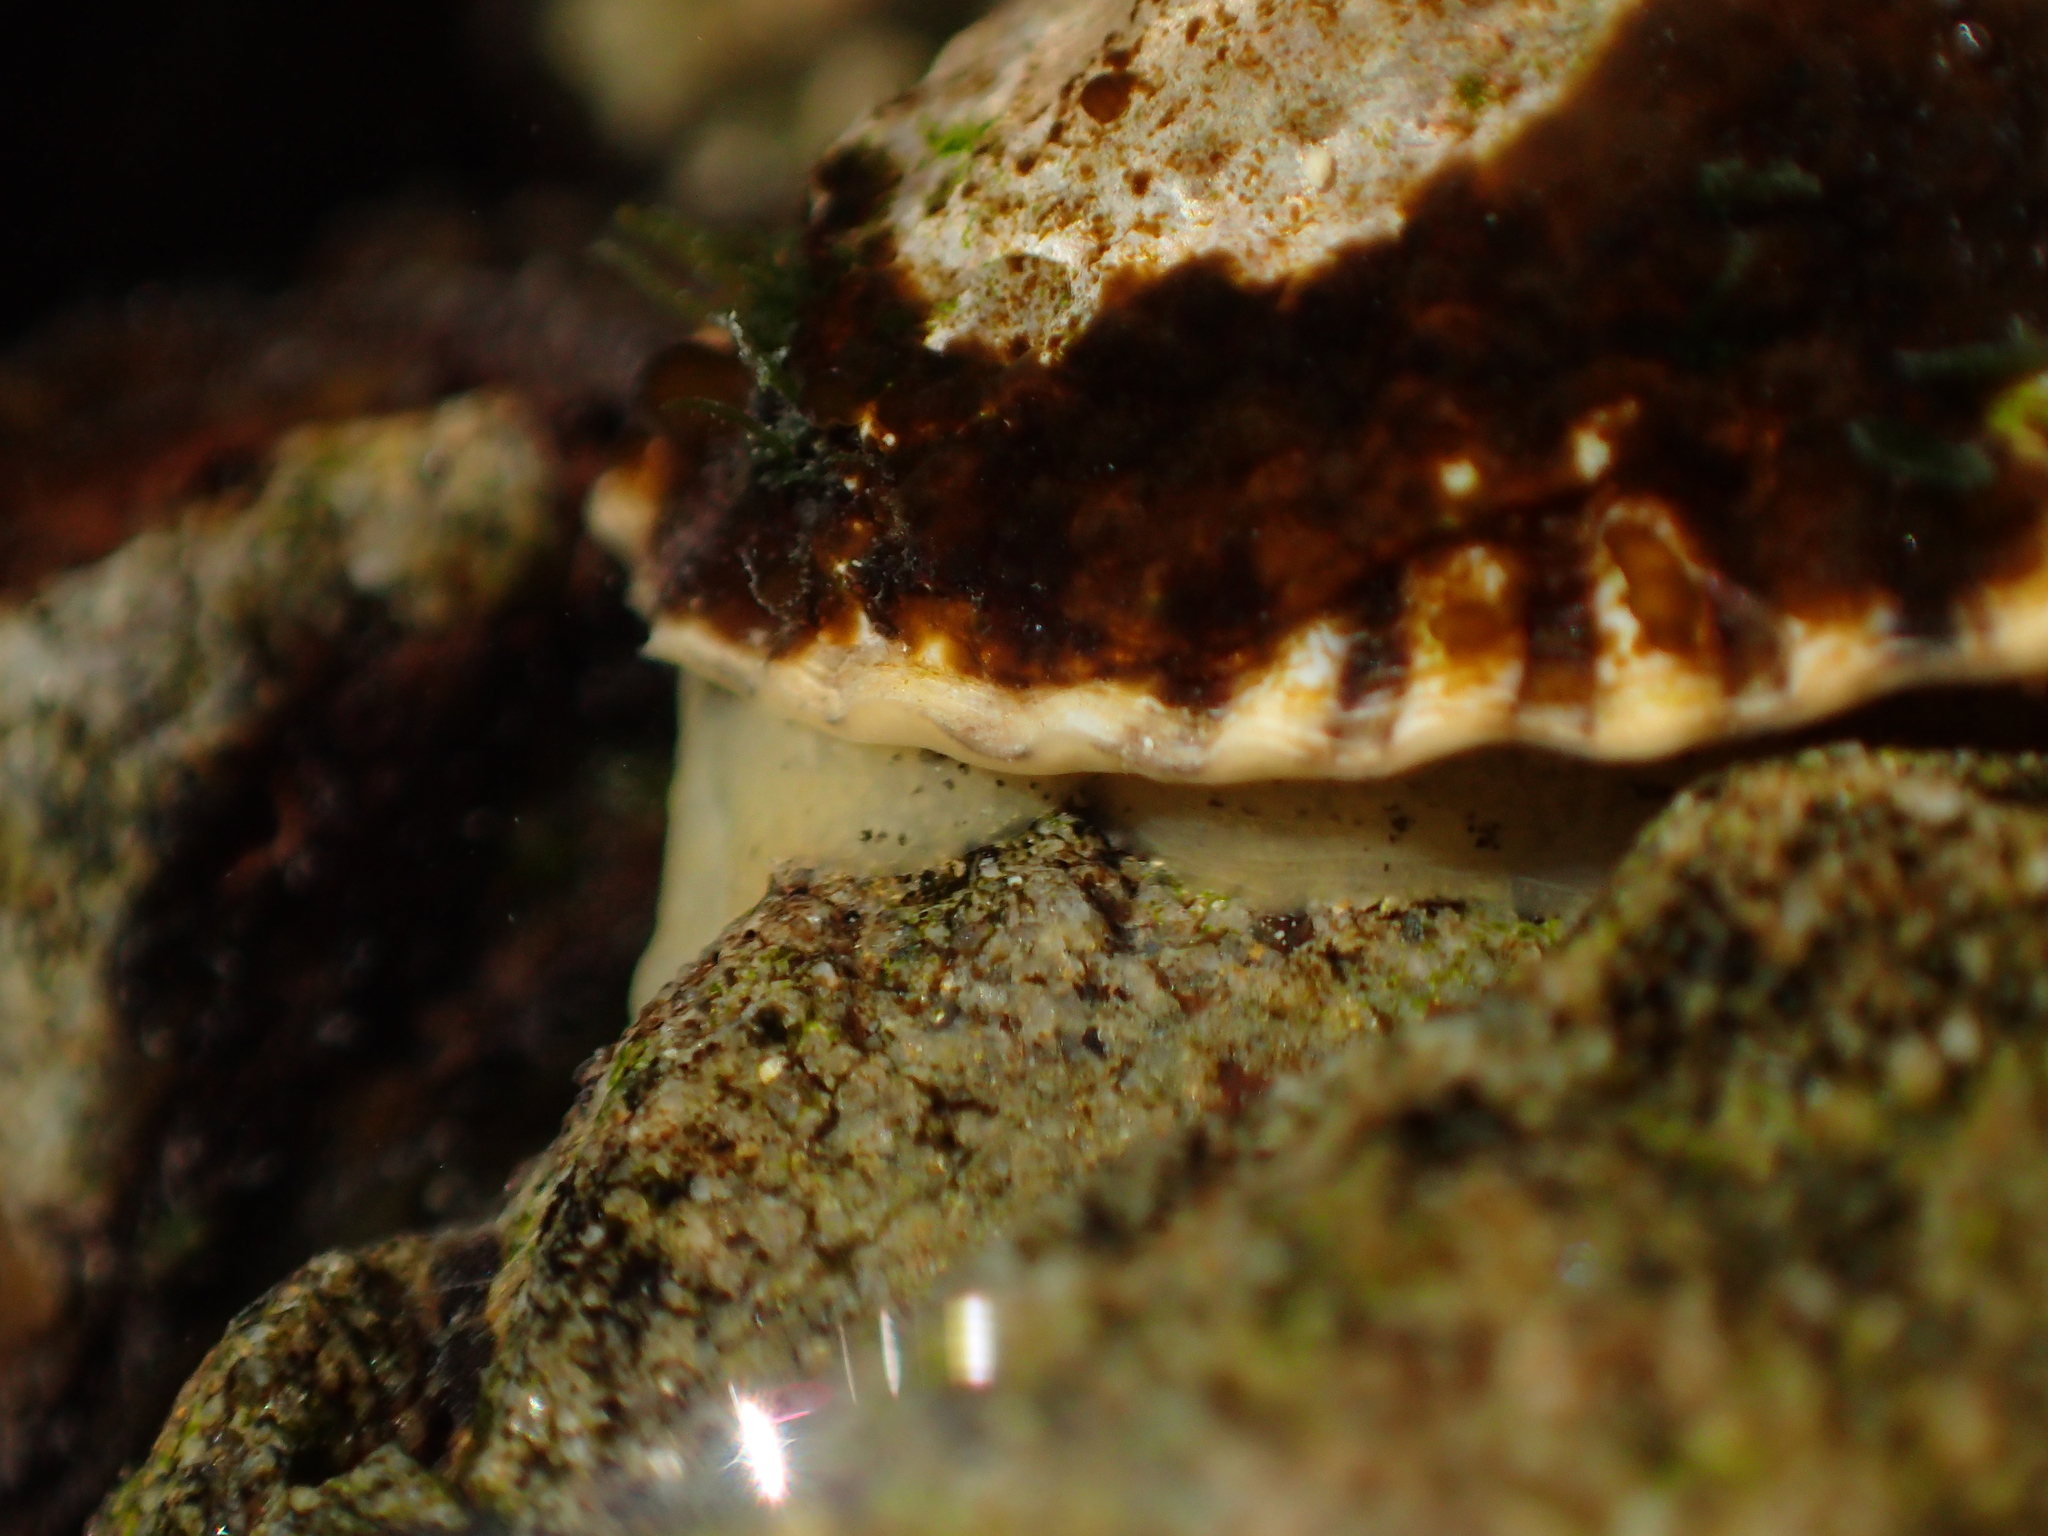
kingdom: Animalia
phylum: Mollusca
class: Gastropoda
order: Siphonariida
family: Siphonariidae
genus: Siphonaria
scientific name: Siphonaria australis
